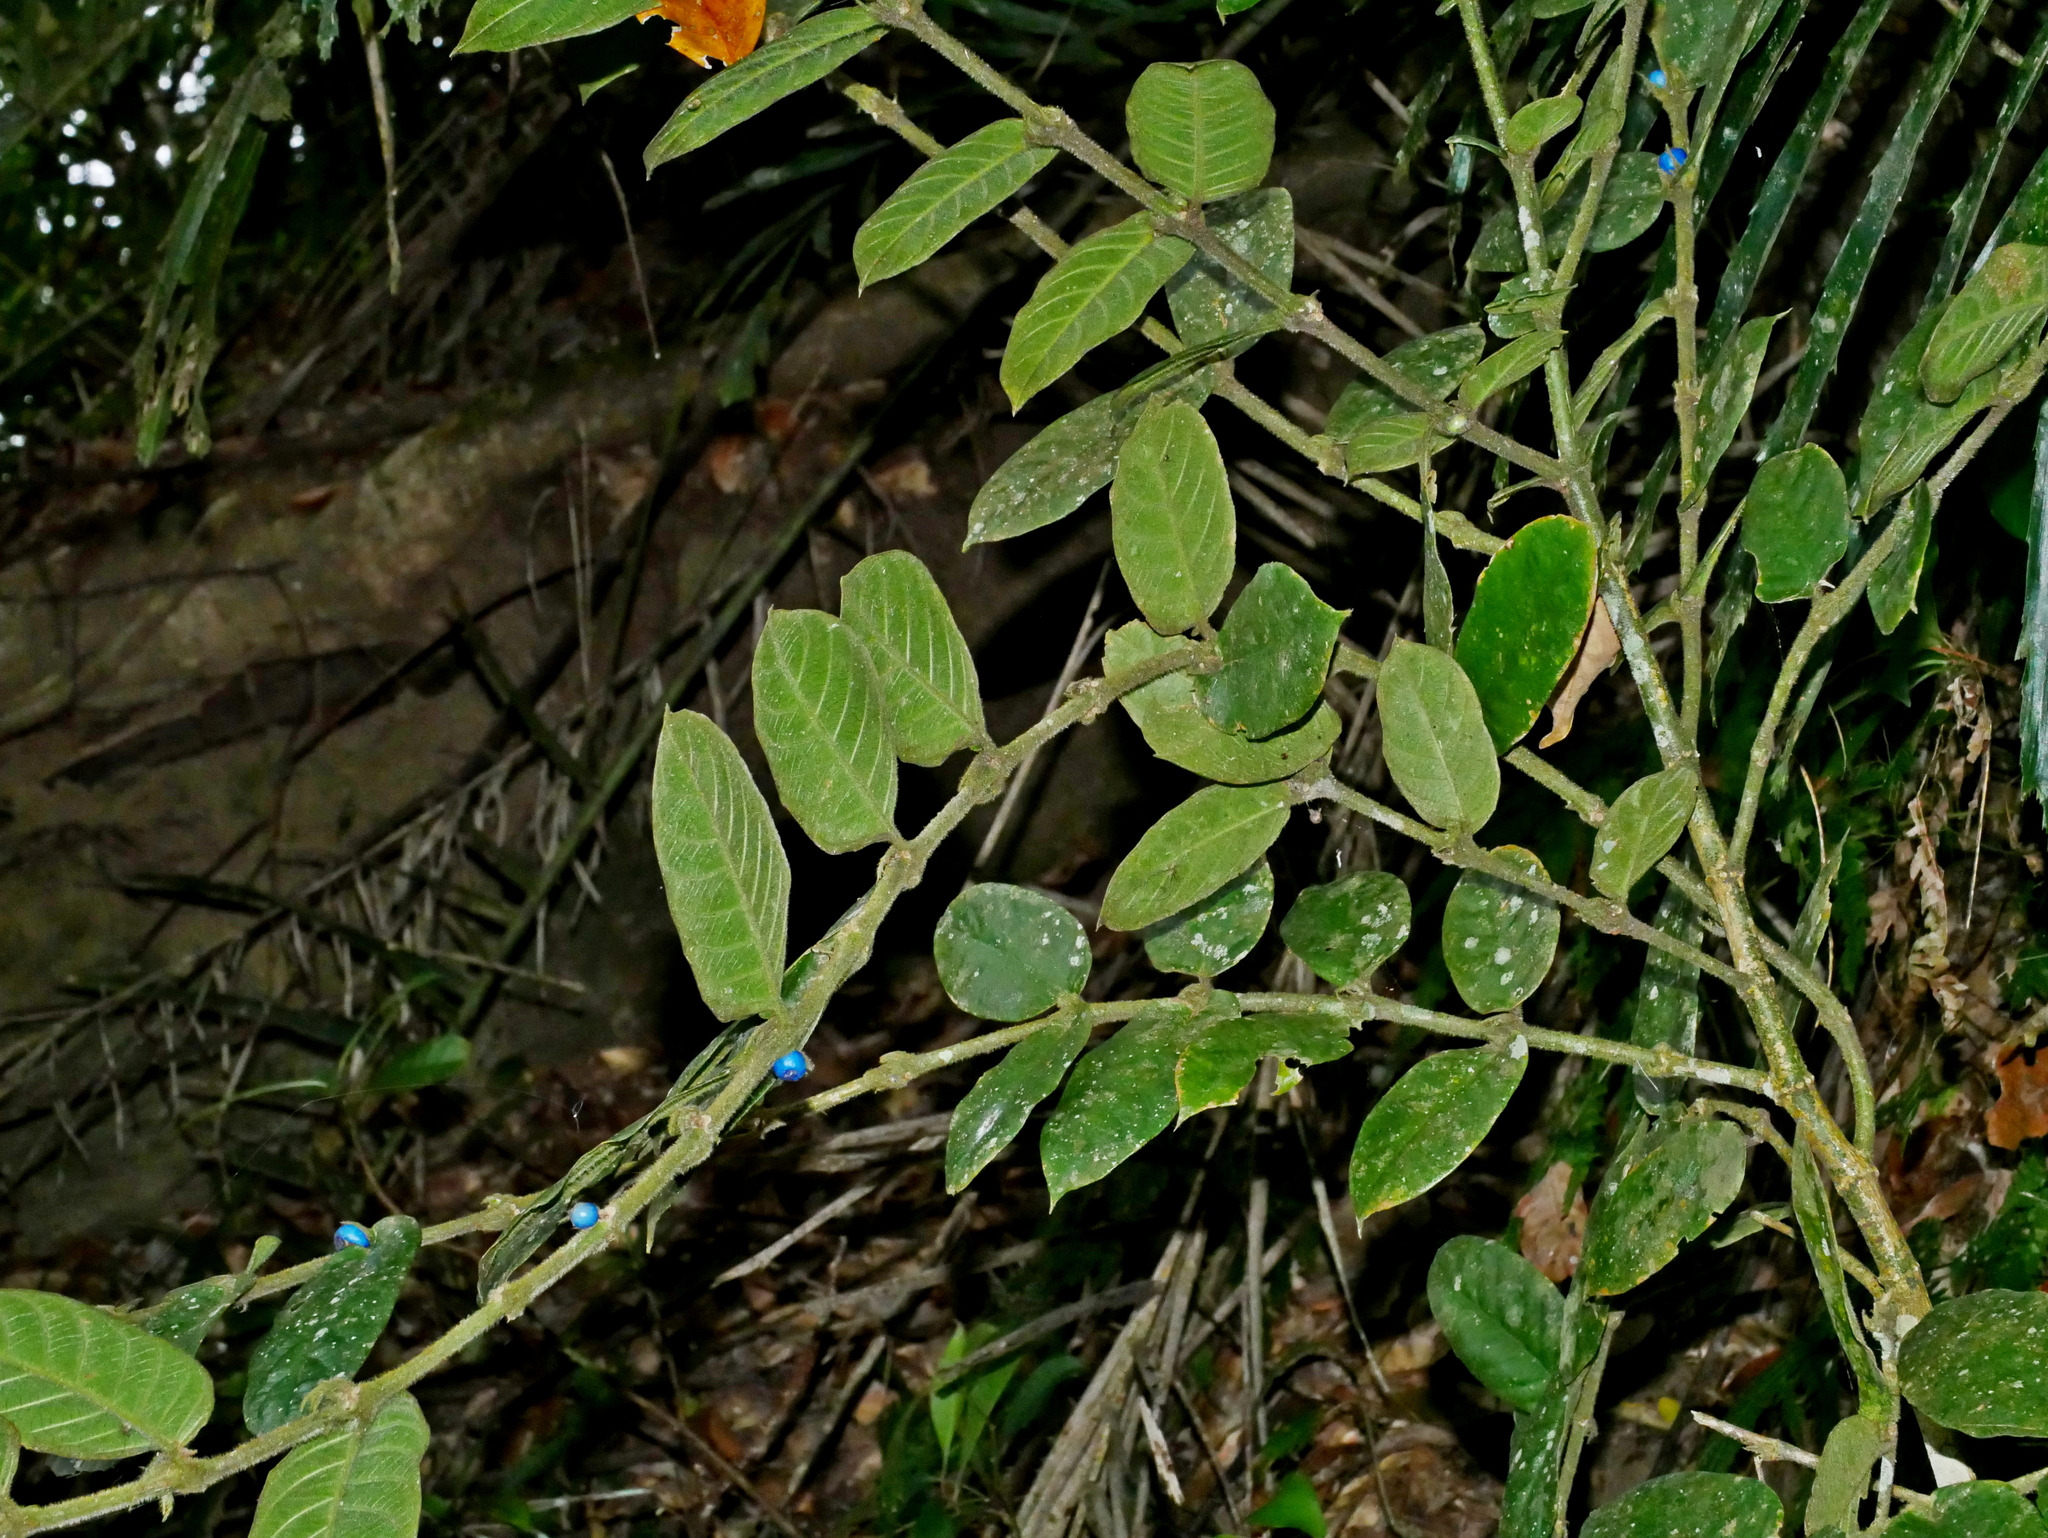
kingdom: Plantae
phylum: Tracheophyta
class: Magnoliopsida
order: Gentianales
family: Rubiaceae
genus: Lasianthus
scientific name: Lasianthus attenuatus
